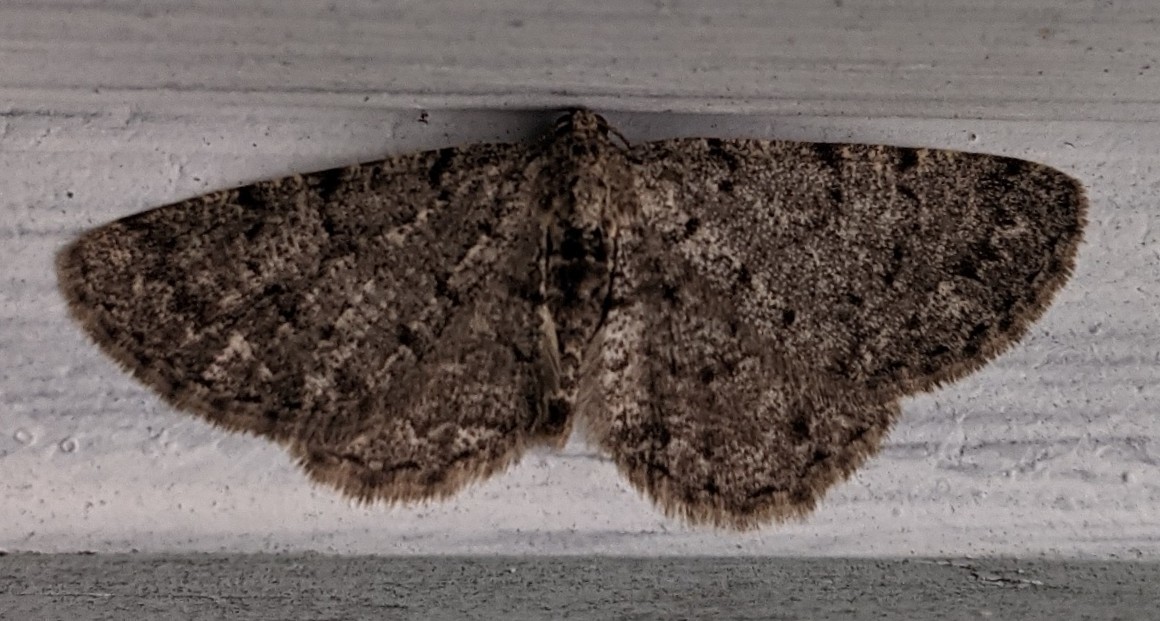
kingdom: Animalia
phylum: Arthropoda
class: Insecta
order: Lepidoptera
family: Geometridae
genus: Aethalura
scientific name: Aethalura intertexta
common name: Four-barred gray
